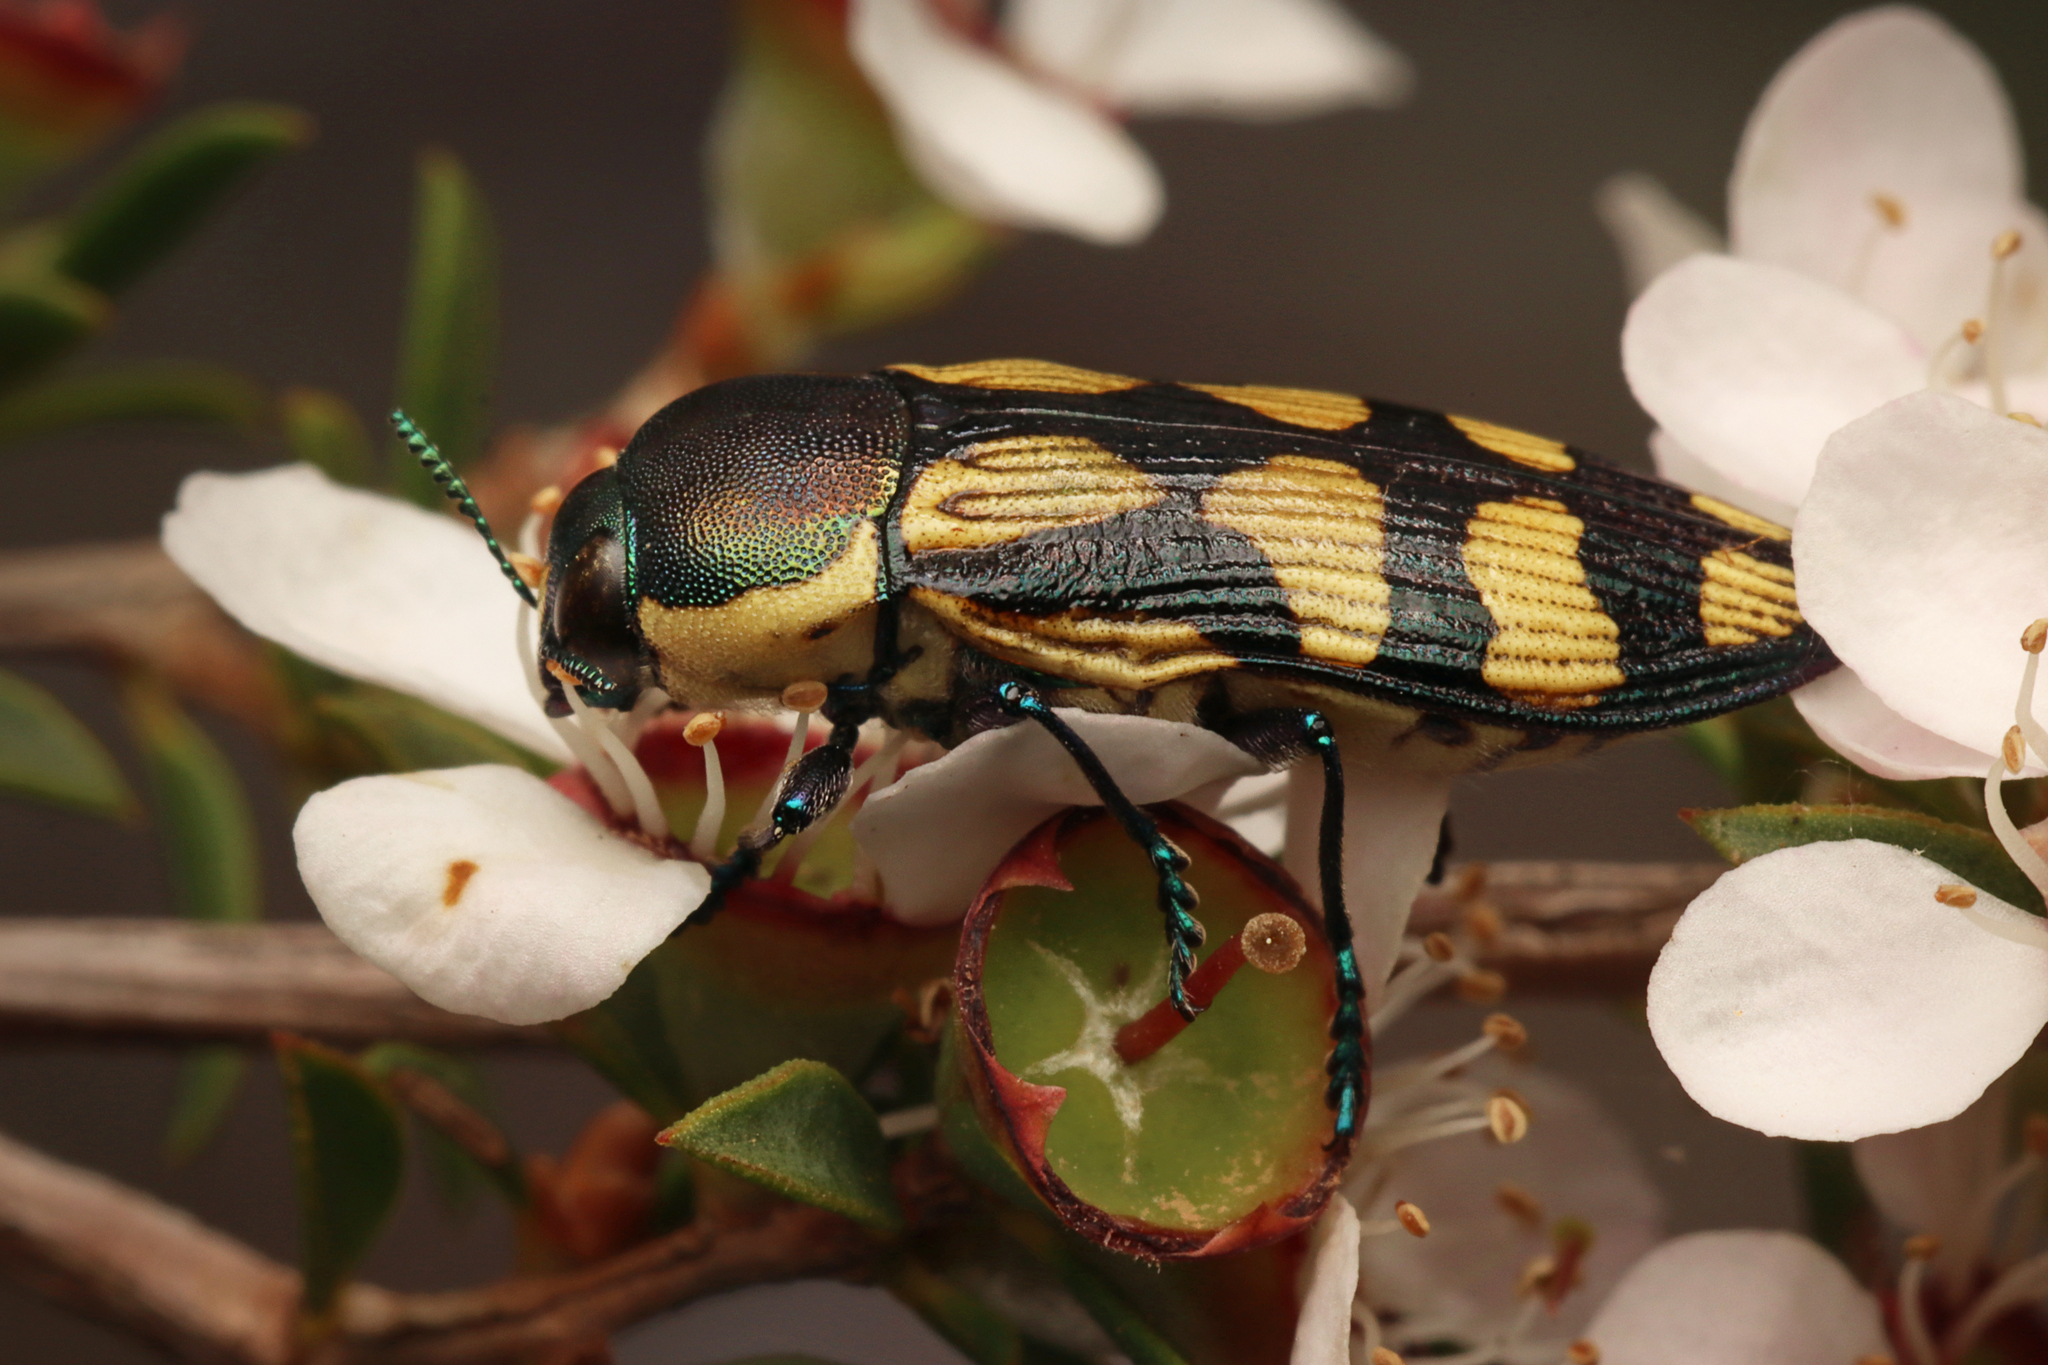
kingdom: Animalia
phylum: Arthropoda
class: Insecta
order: Coleoptera
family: Buprestidae
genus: Castiarina
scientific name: Castiarina adelaidae
